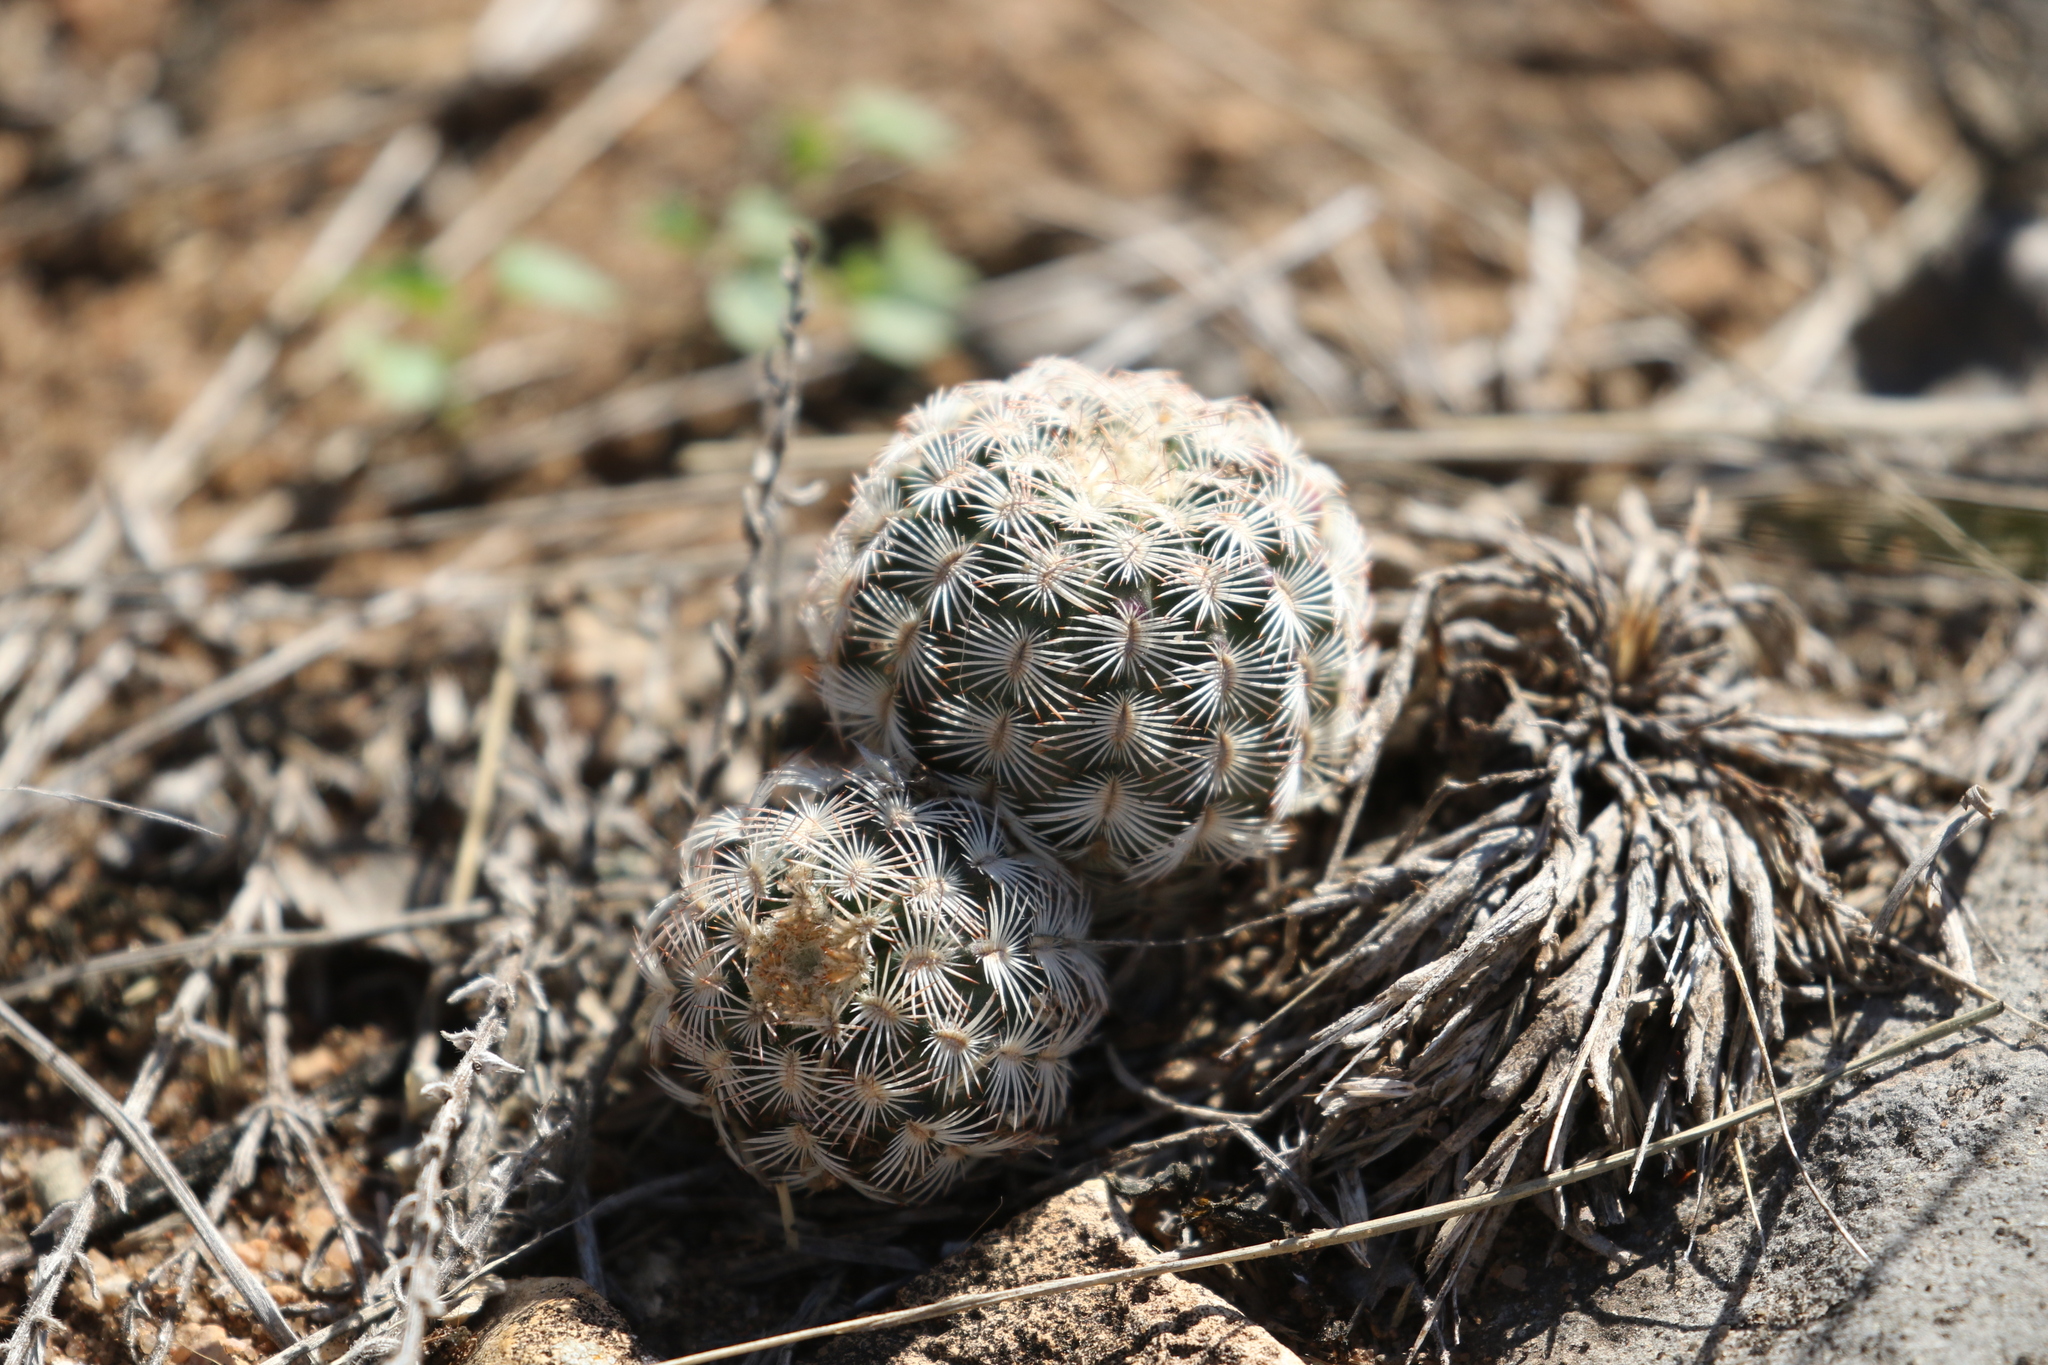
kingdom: Plantae
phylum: Tracheophyta
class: Magnoliopsida
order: Caryophyllales
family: Cactaceae
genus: Echinocereus
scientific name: Echinocereus reichenbachii
